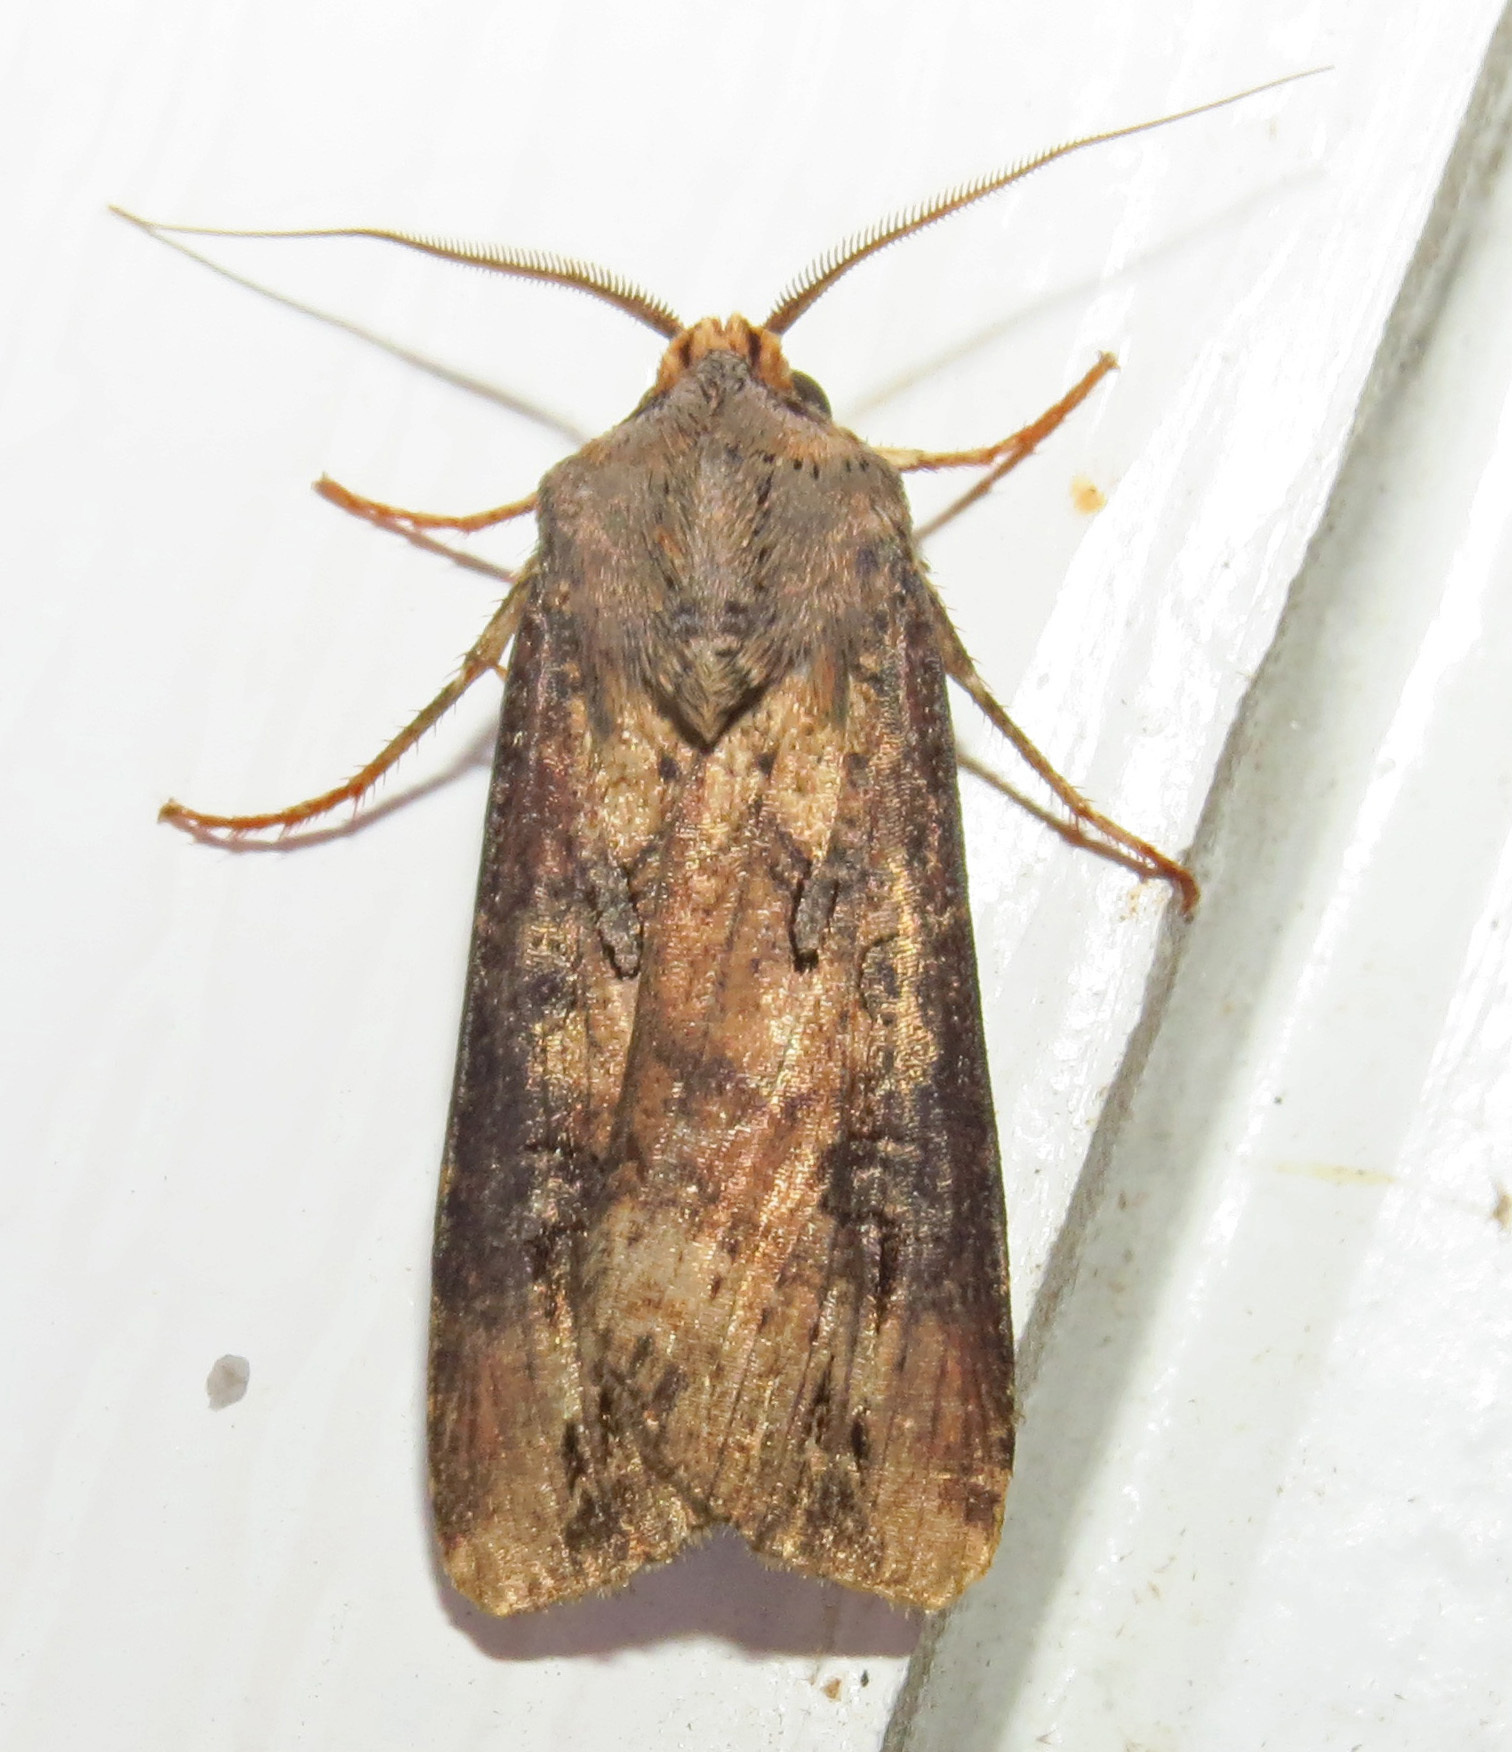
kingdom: Animalia
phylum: Arthropoda
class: Insecta
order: Lepidoptera
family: Noctuidae
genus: Agrotis
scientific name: Agrotis ipsilon
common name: Dark sword-grass
